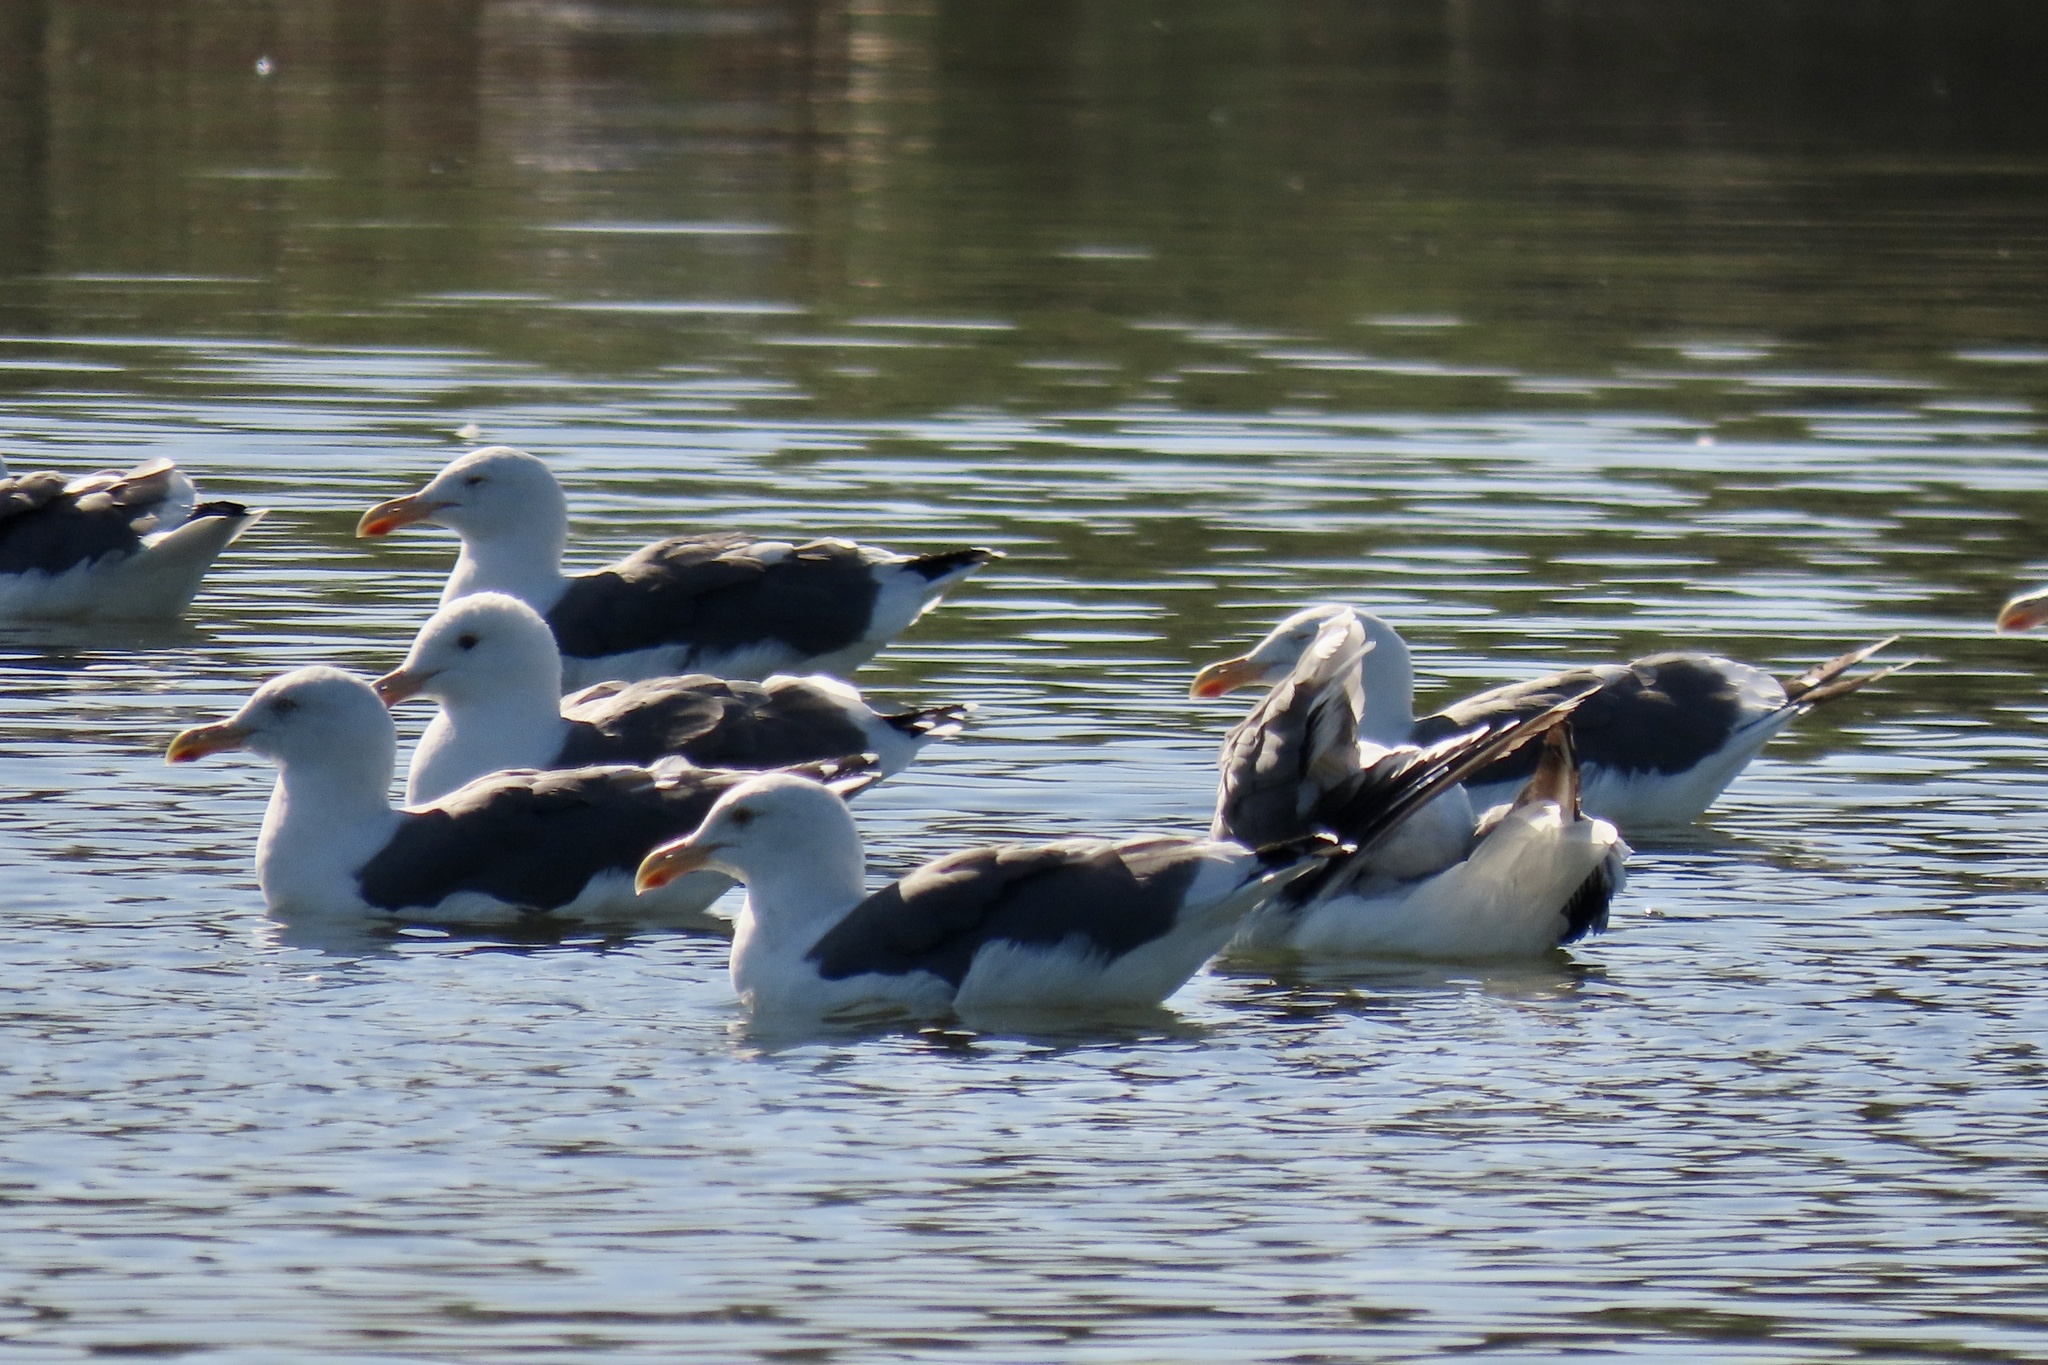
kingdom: Animalia
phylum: Chordata
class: Aves
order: Charadriiformes
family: Laridae
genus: Larus
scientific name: Larus occidentalis
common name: Western gull
